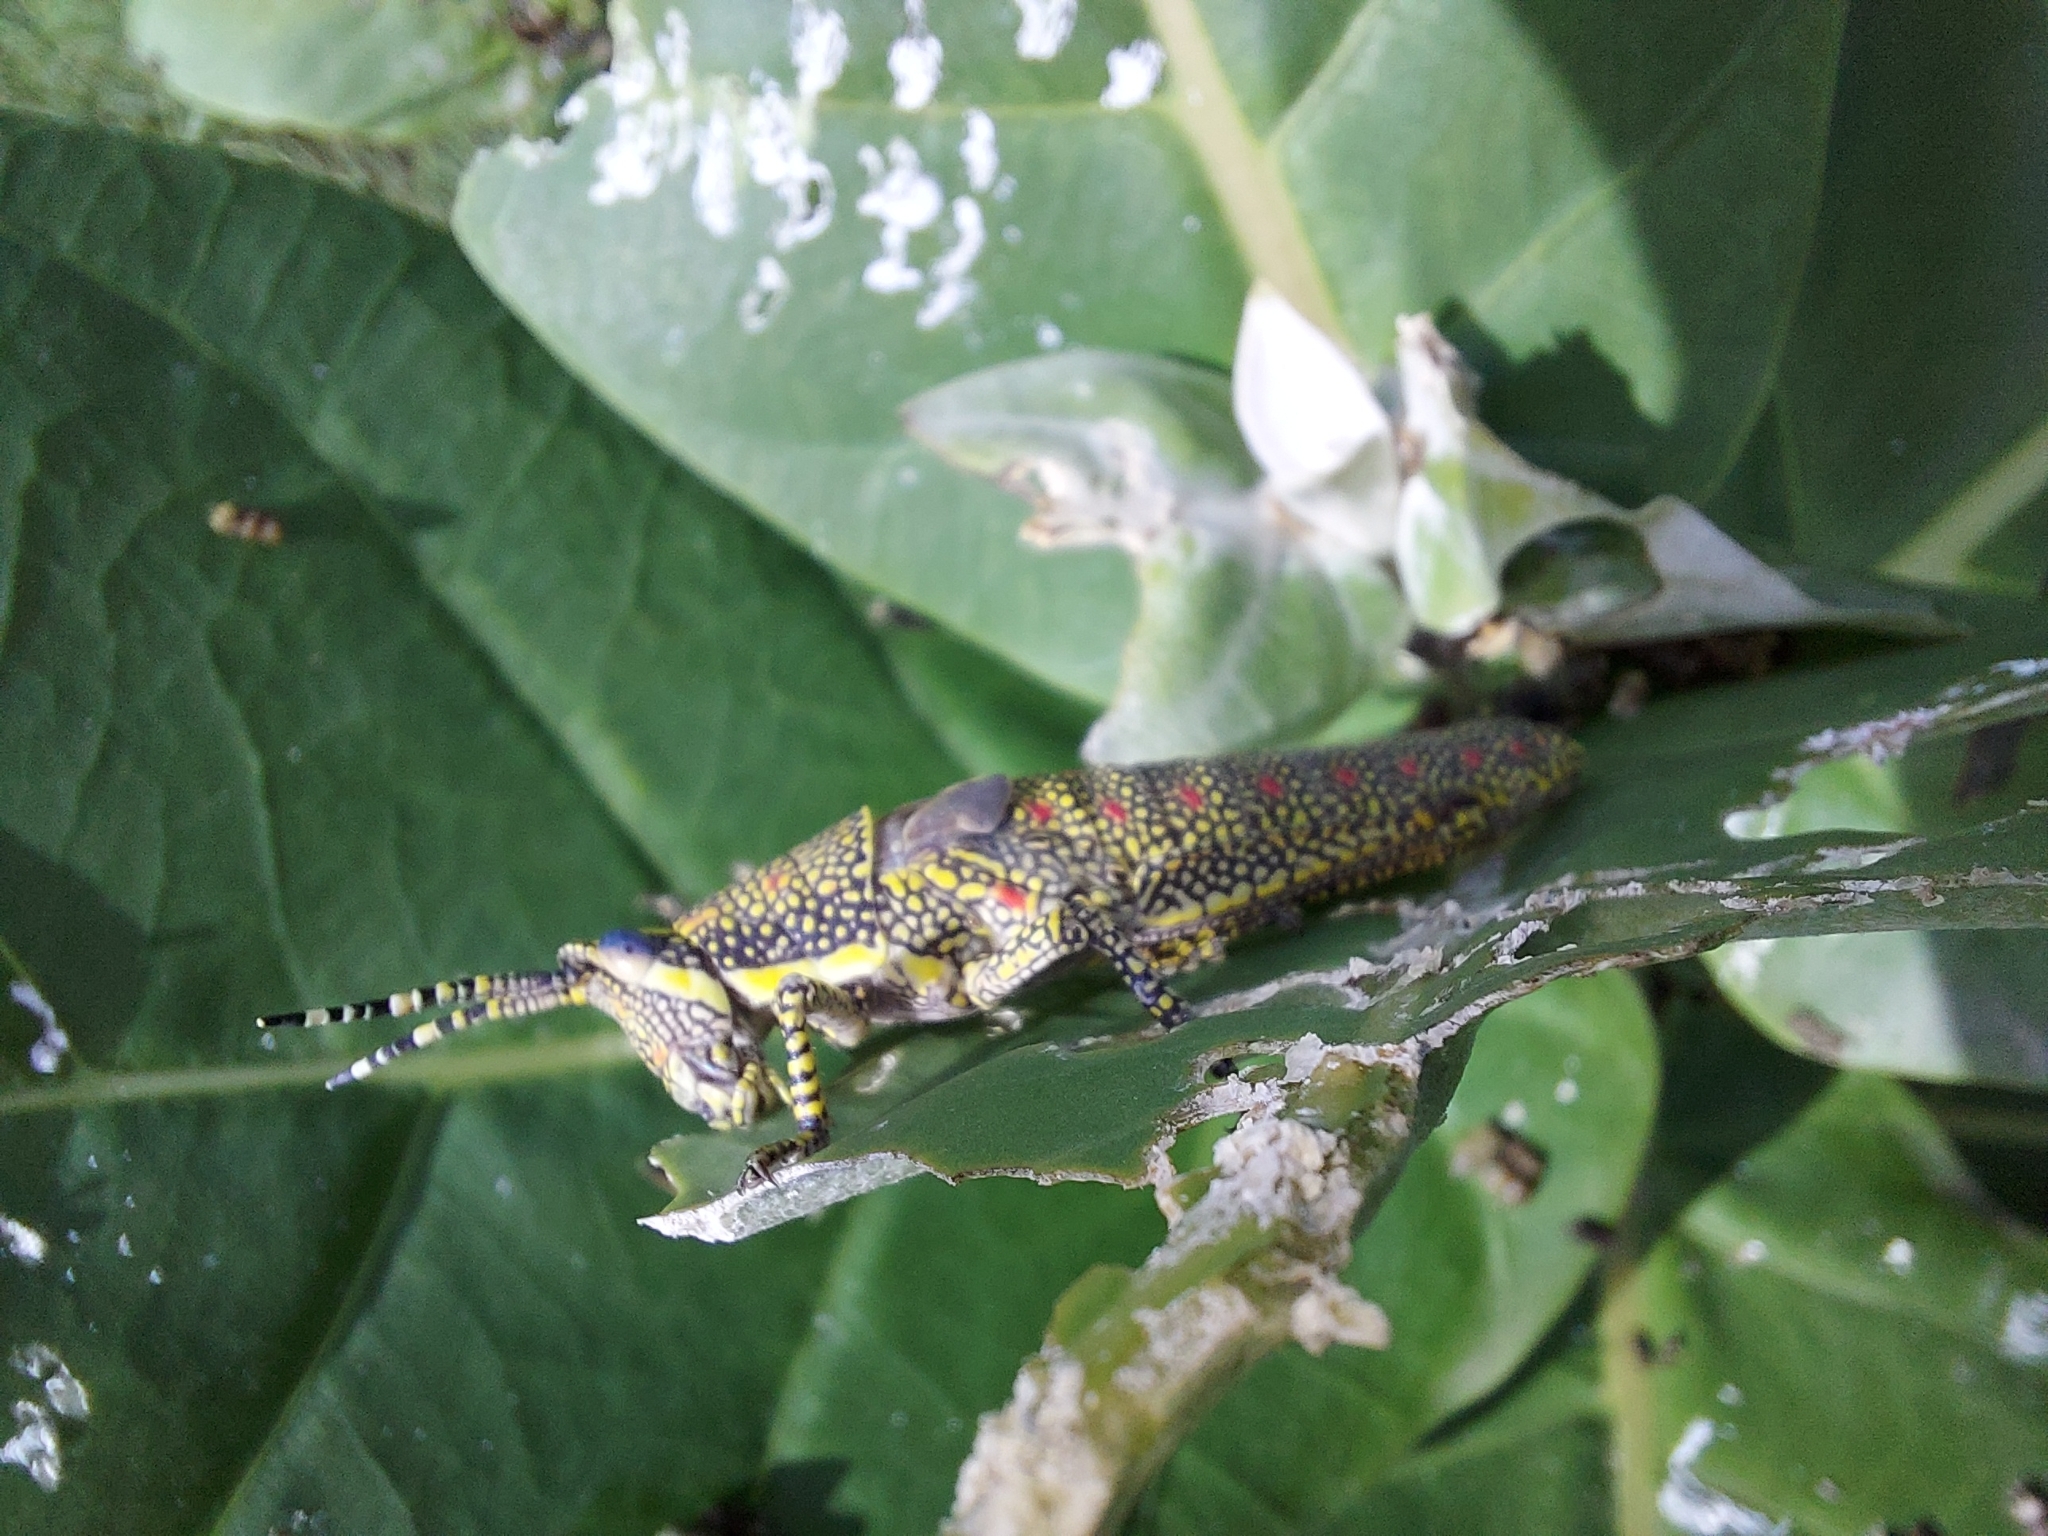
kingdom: Animalia
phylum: Arthropoda
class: Insecta
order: Orthoptera
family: Pyrgomorphidae
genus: Poekilocerus
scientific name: Poekilocerus pictus
